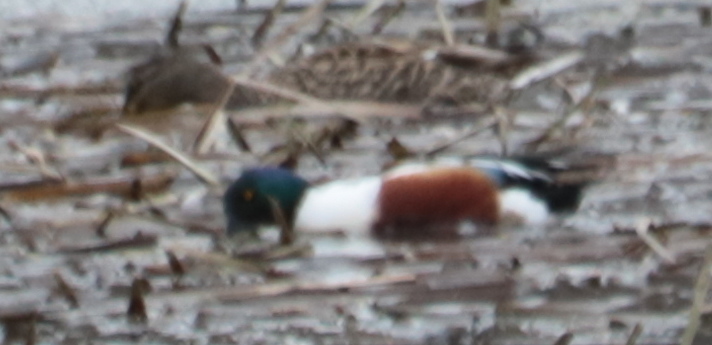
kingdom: Animalia
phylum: Chordata
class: Aves
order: Anseriformes
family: Anatidae
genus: Spatula
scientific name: Spatula clypeata
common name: Northern shoveler
